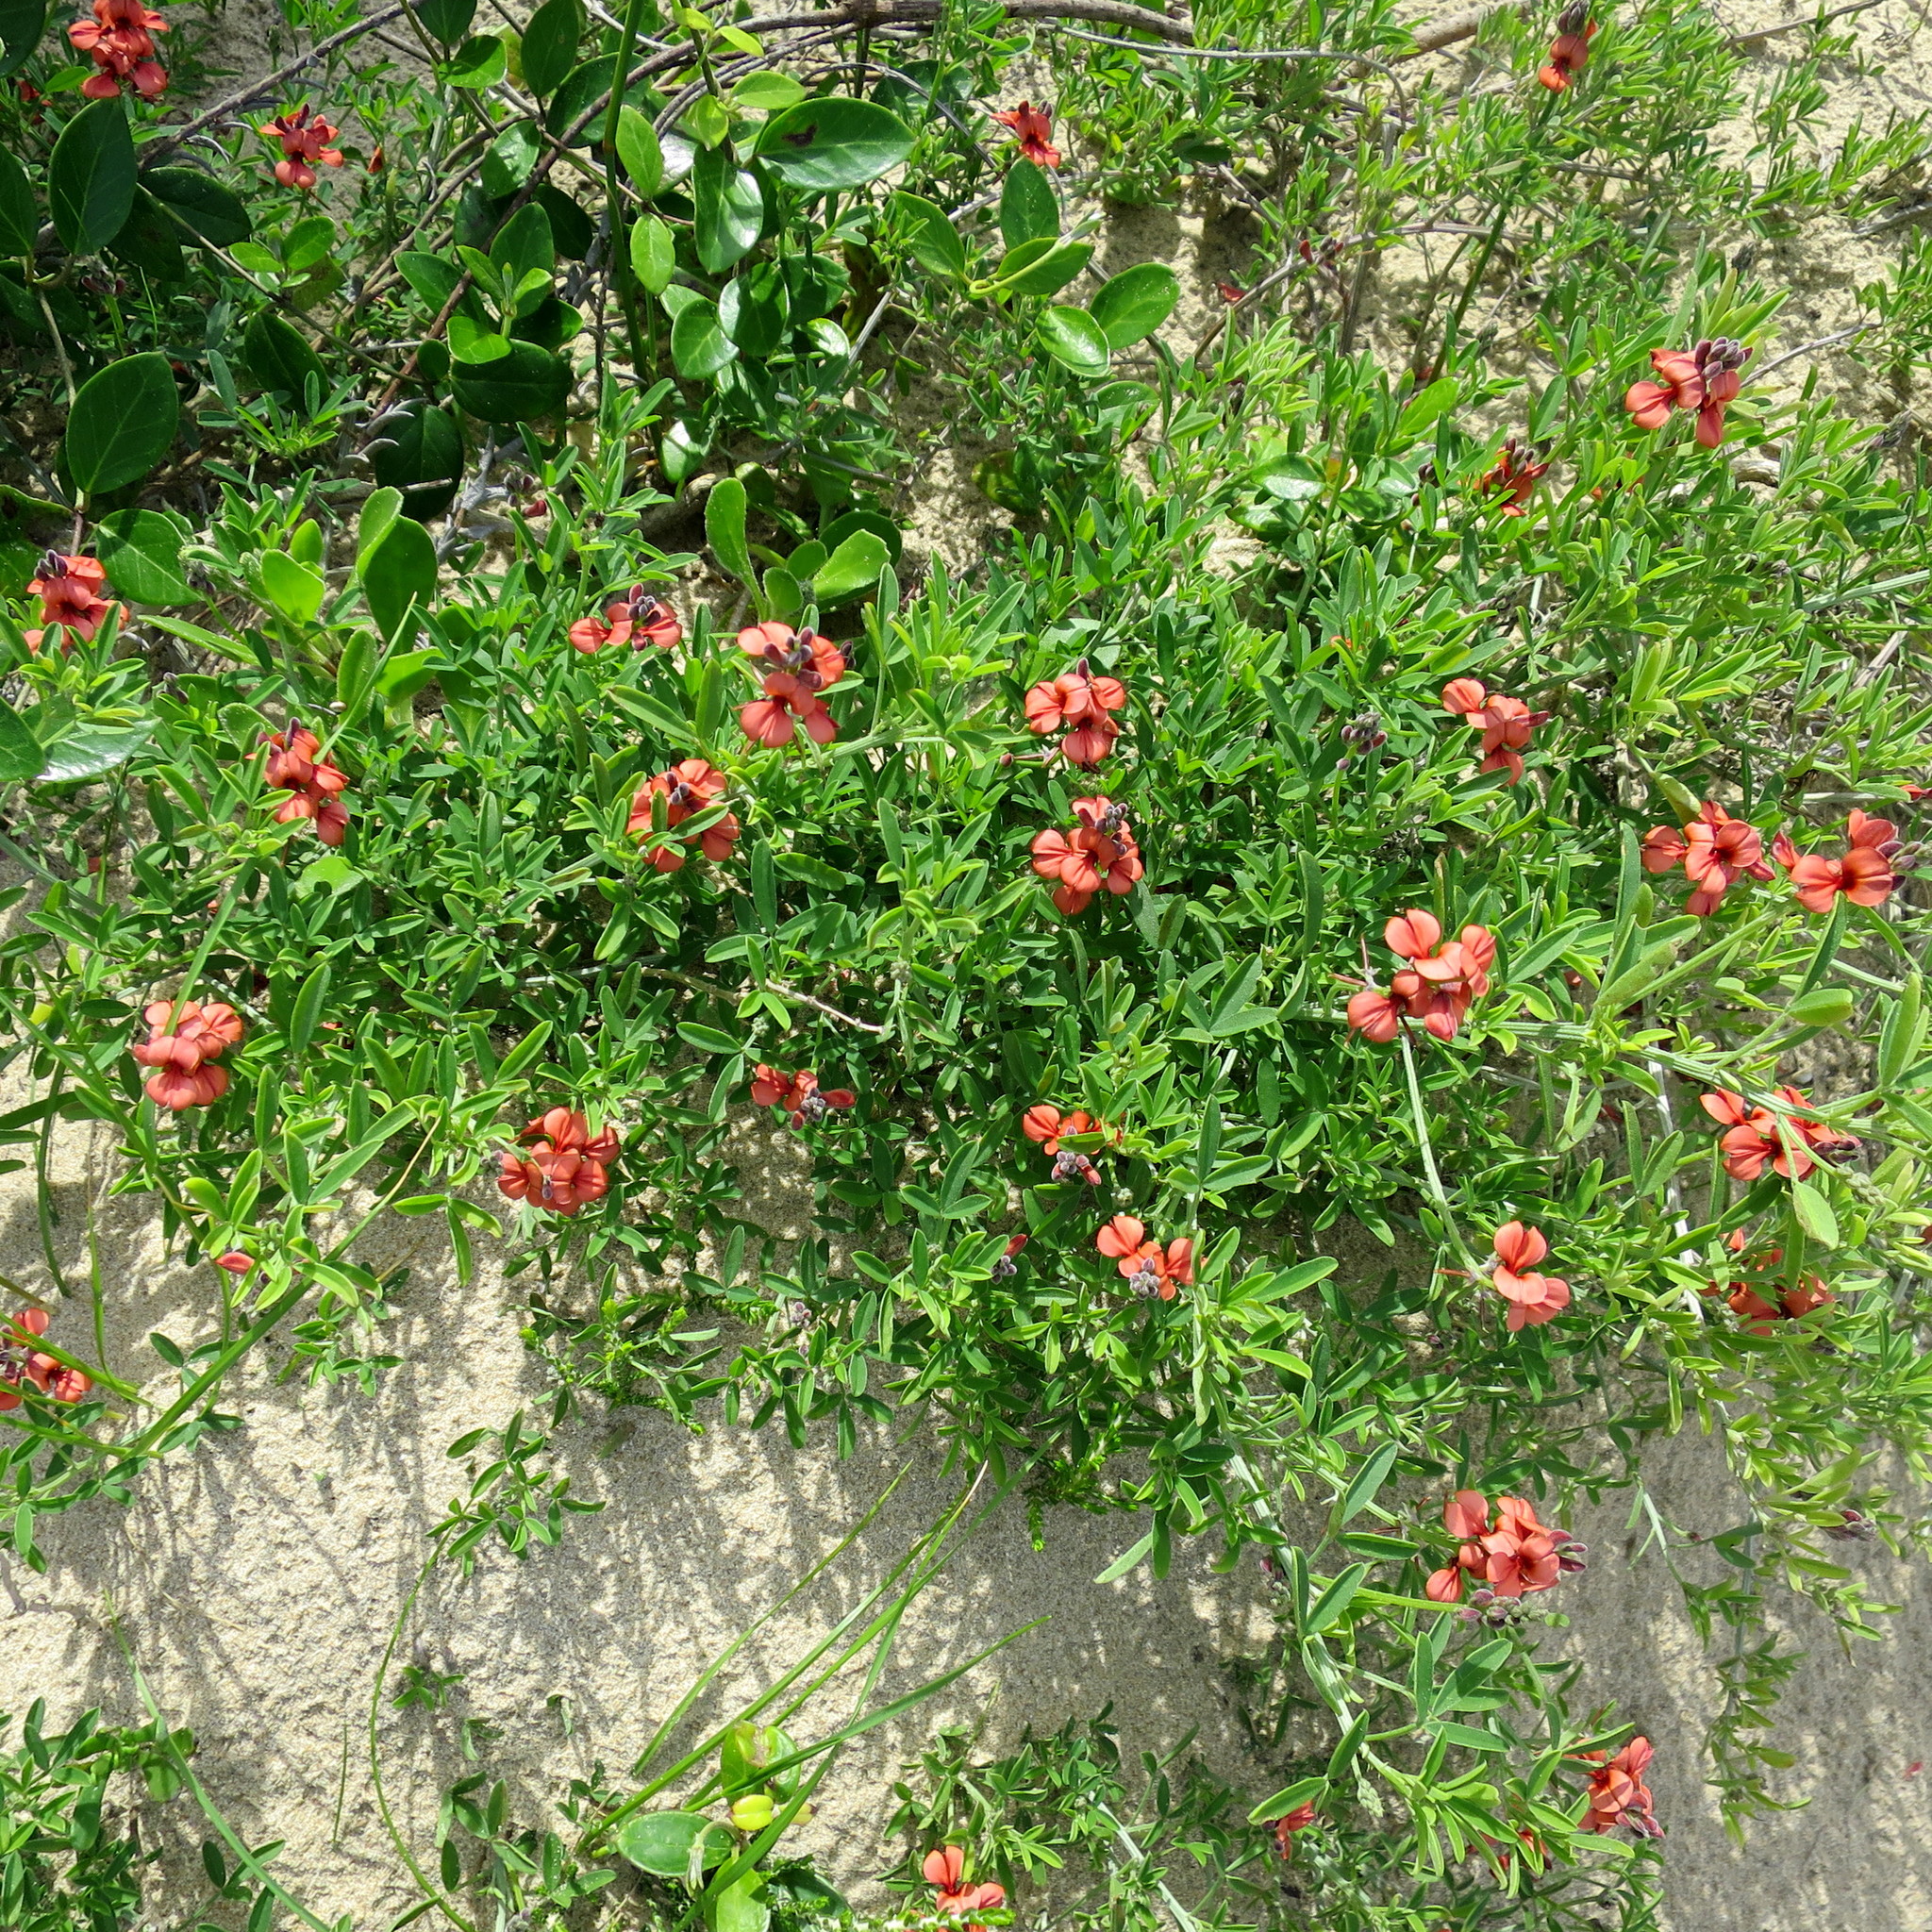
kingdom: Plantae
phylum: Tracheophyta
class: Magnoliopsida
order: Fabales
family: Fabaceae
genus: Indigofera
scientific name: Indigofera candicans
